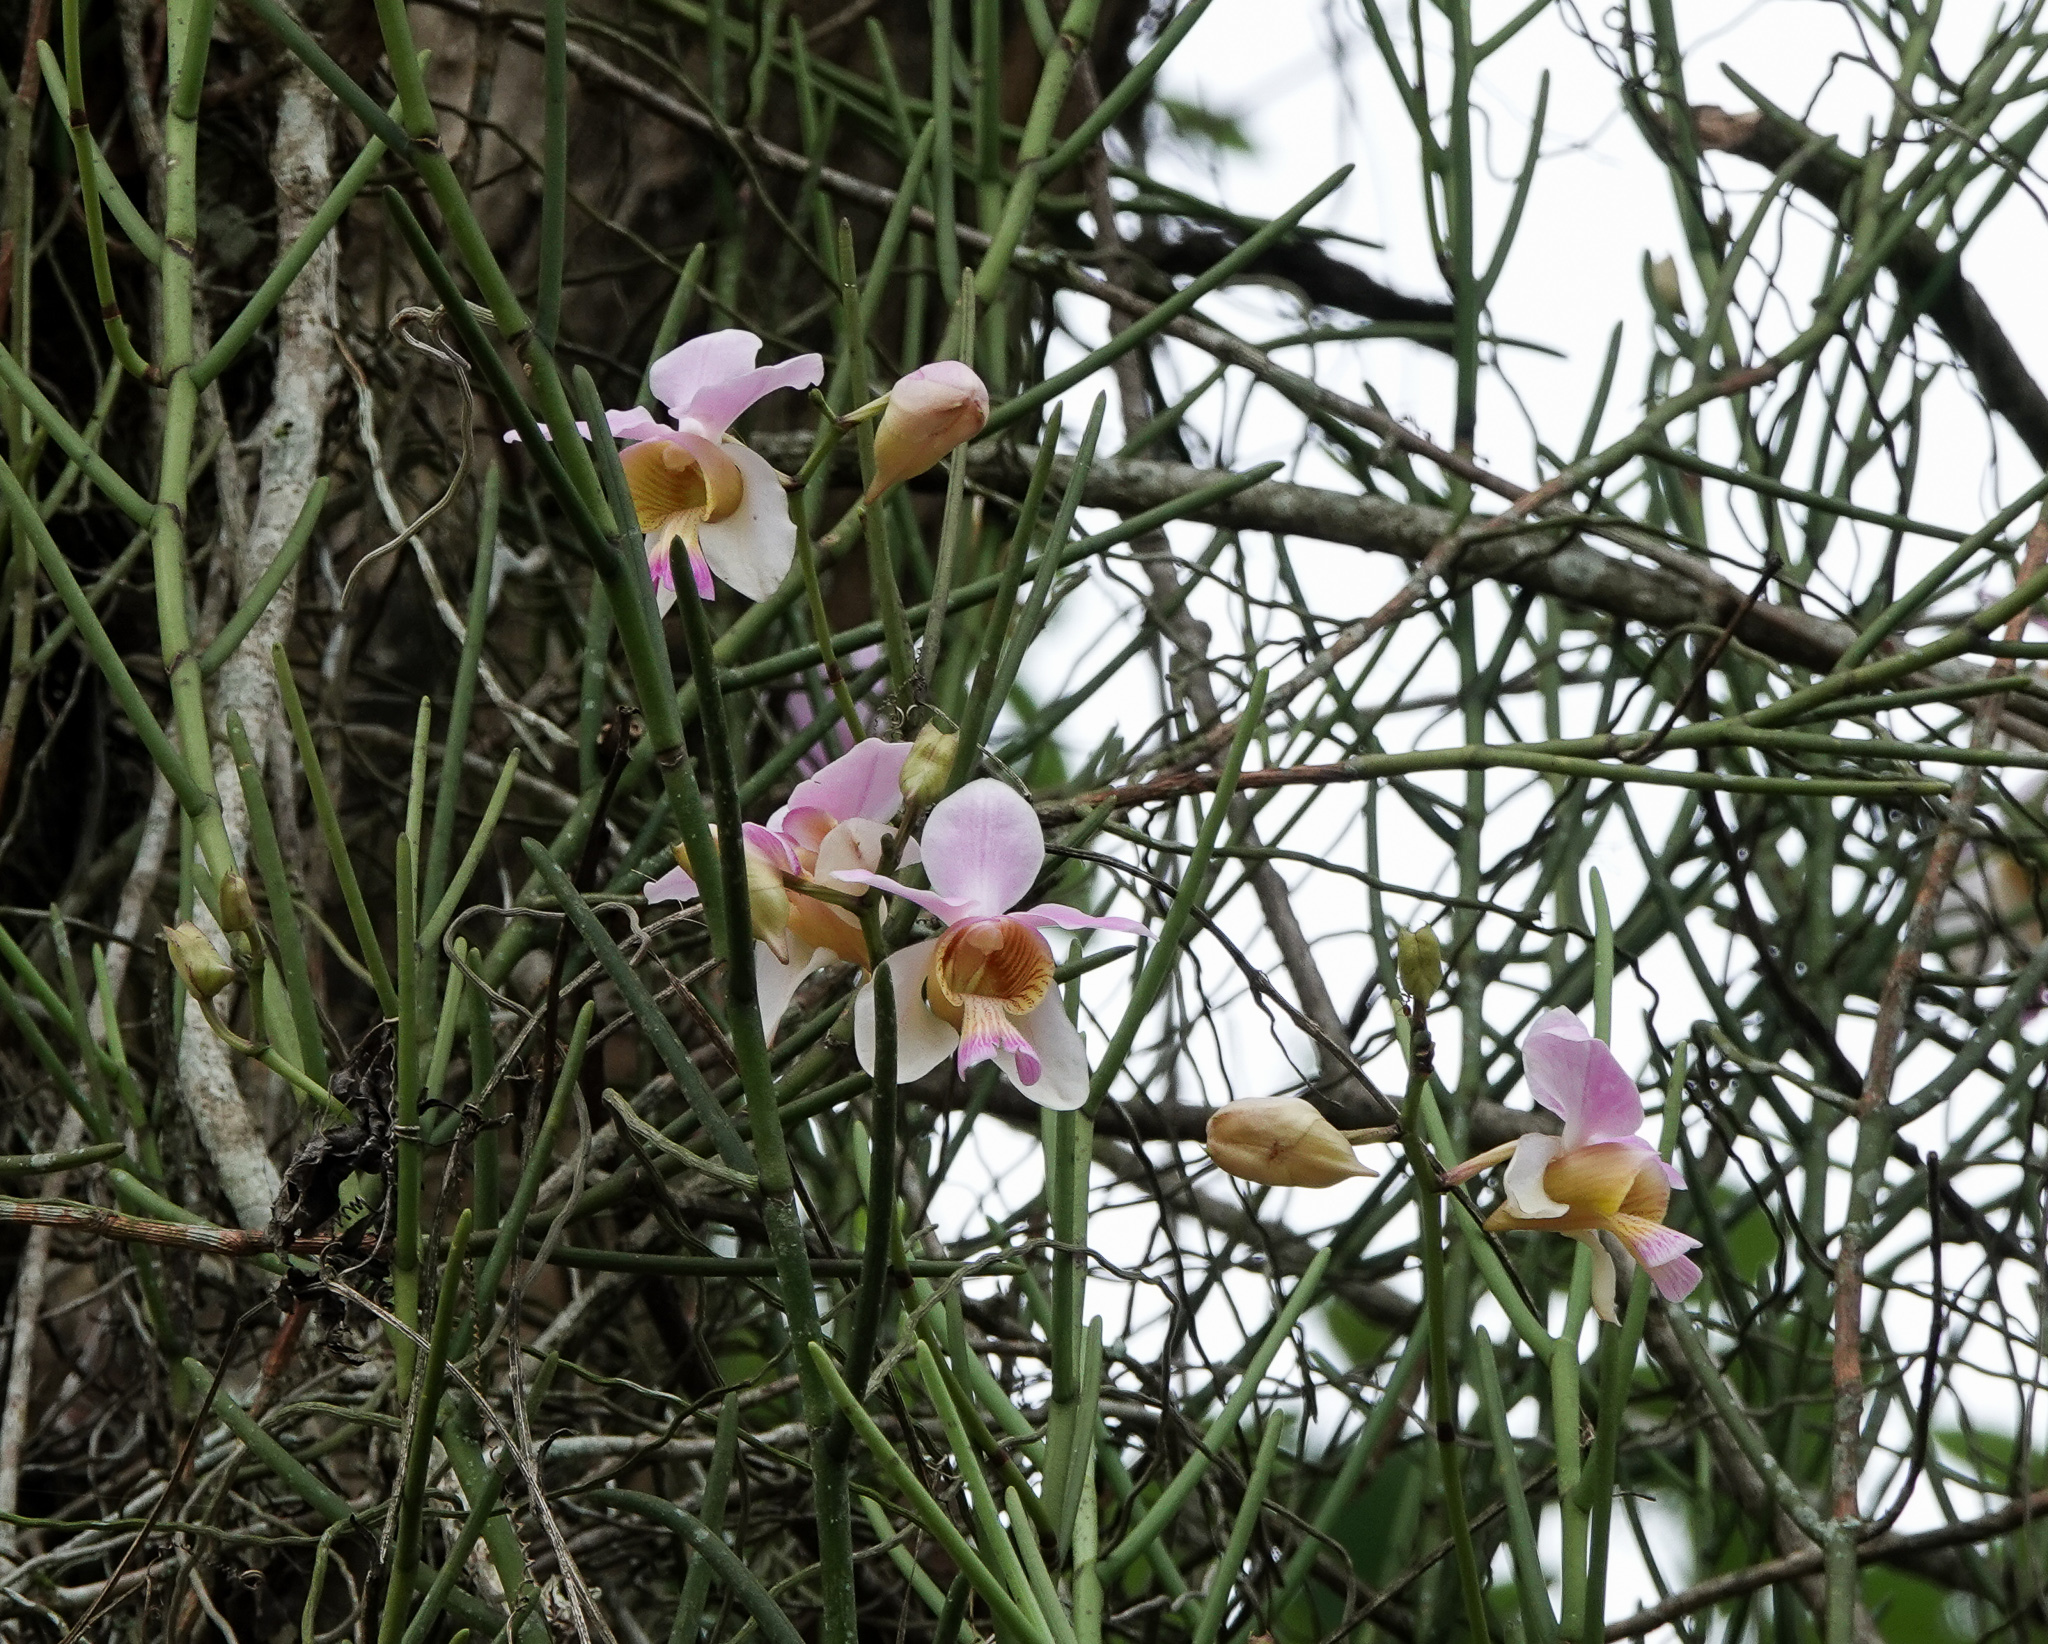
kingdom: Plantae
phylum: Tracheophyta
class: Liliopsida
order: Asparagales
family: Orchidaceae
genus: Papilionanthe
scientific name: Papilionanthe teres
